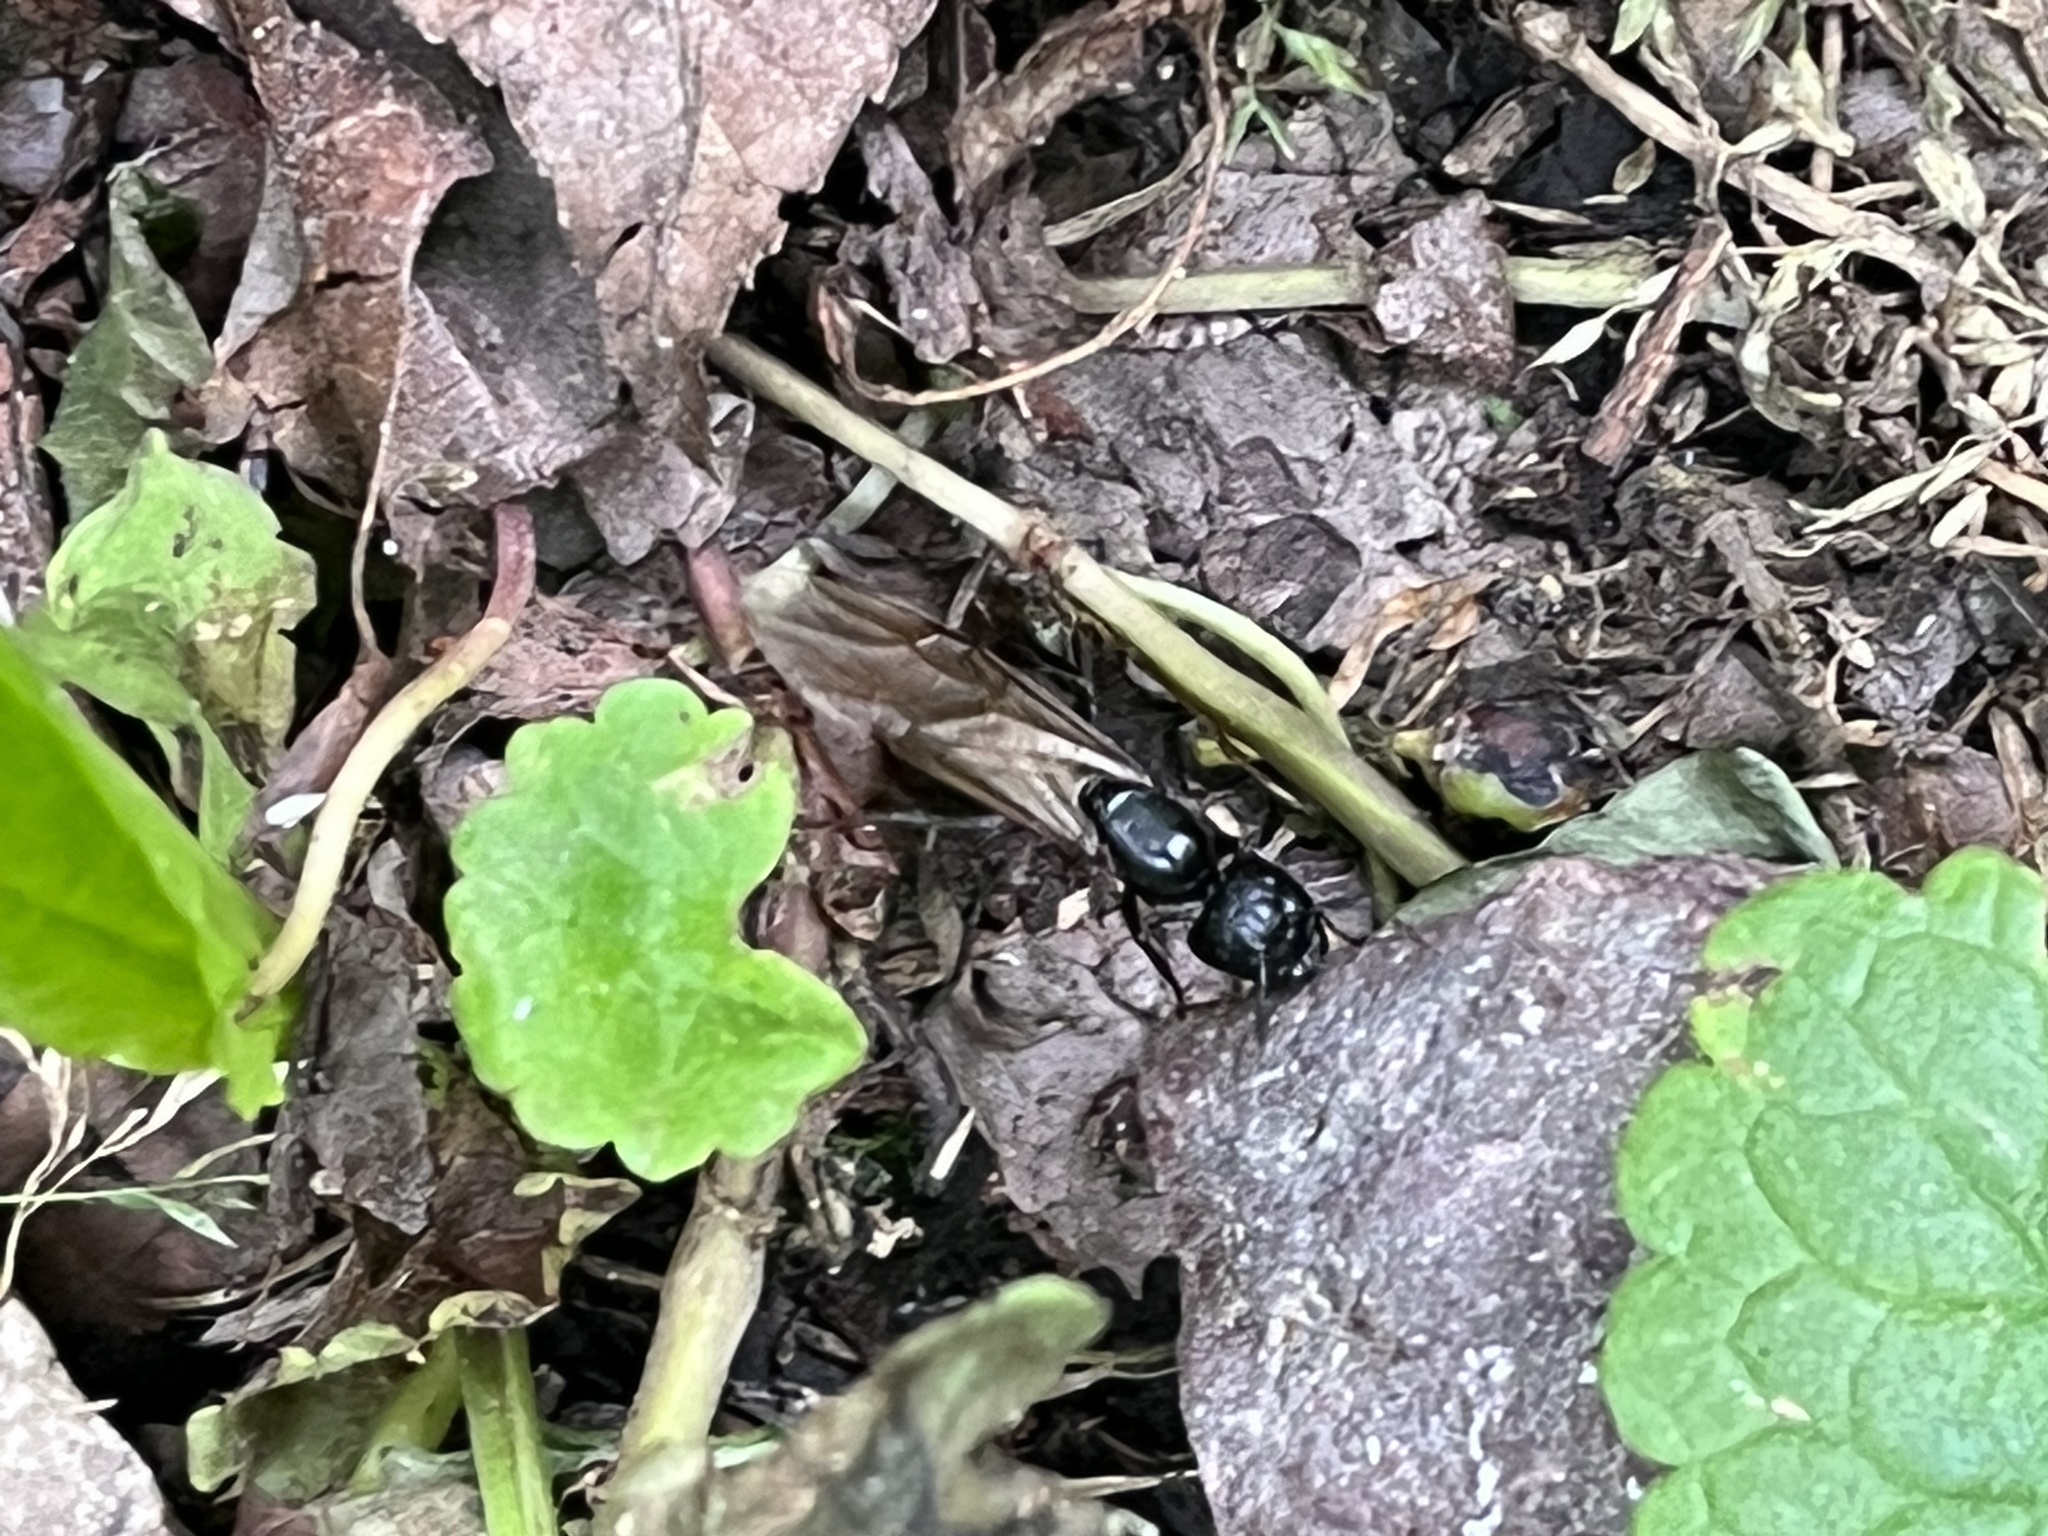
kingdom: Animalia
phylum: Arthropoda
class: Insecta
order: Hymenoptera
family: Formicidae
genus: Camponotus
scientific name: Camponotus pennsylvanicus
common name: Black carpenter ant
